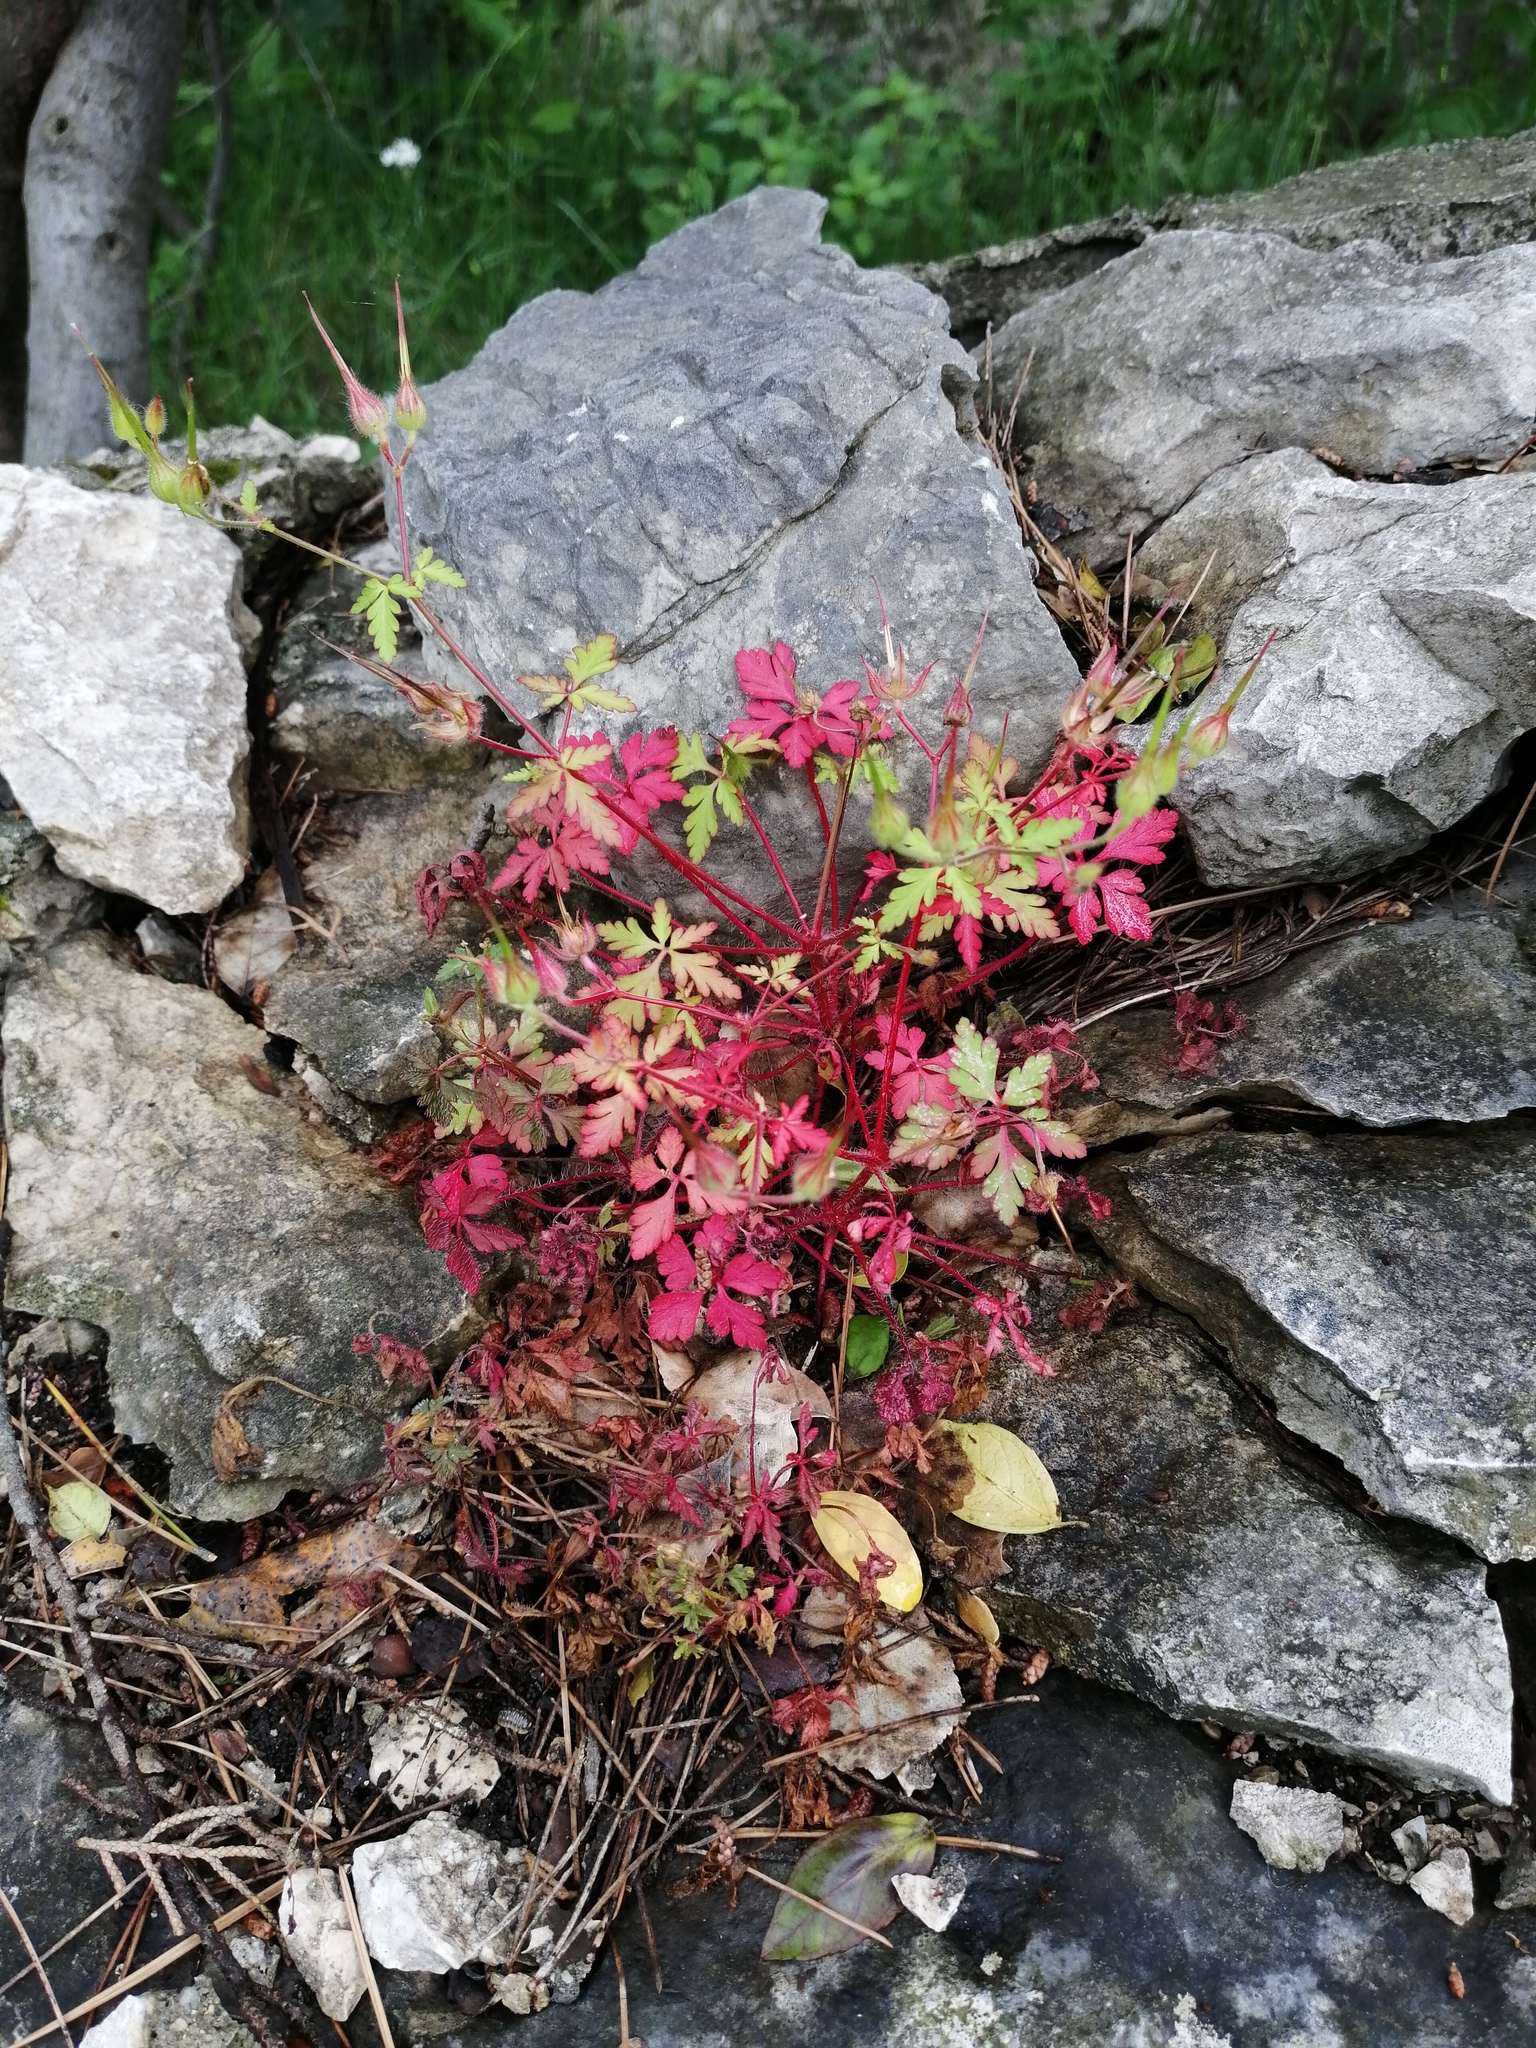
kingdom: Plantae
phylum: Tracheophyta
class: Magnoliopsida
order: Geraniales
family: Geraniaceae
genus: Geranium
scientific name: Geranium purpureum
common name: Little-robin
